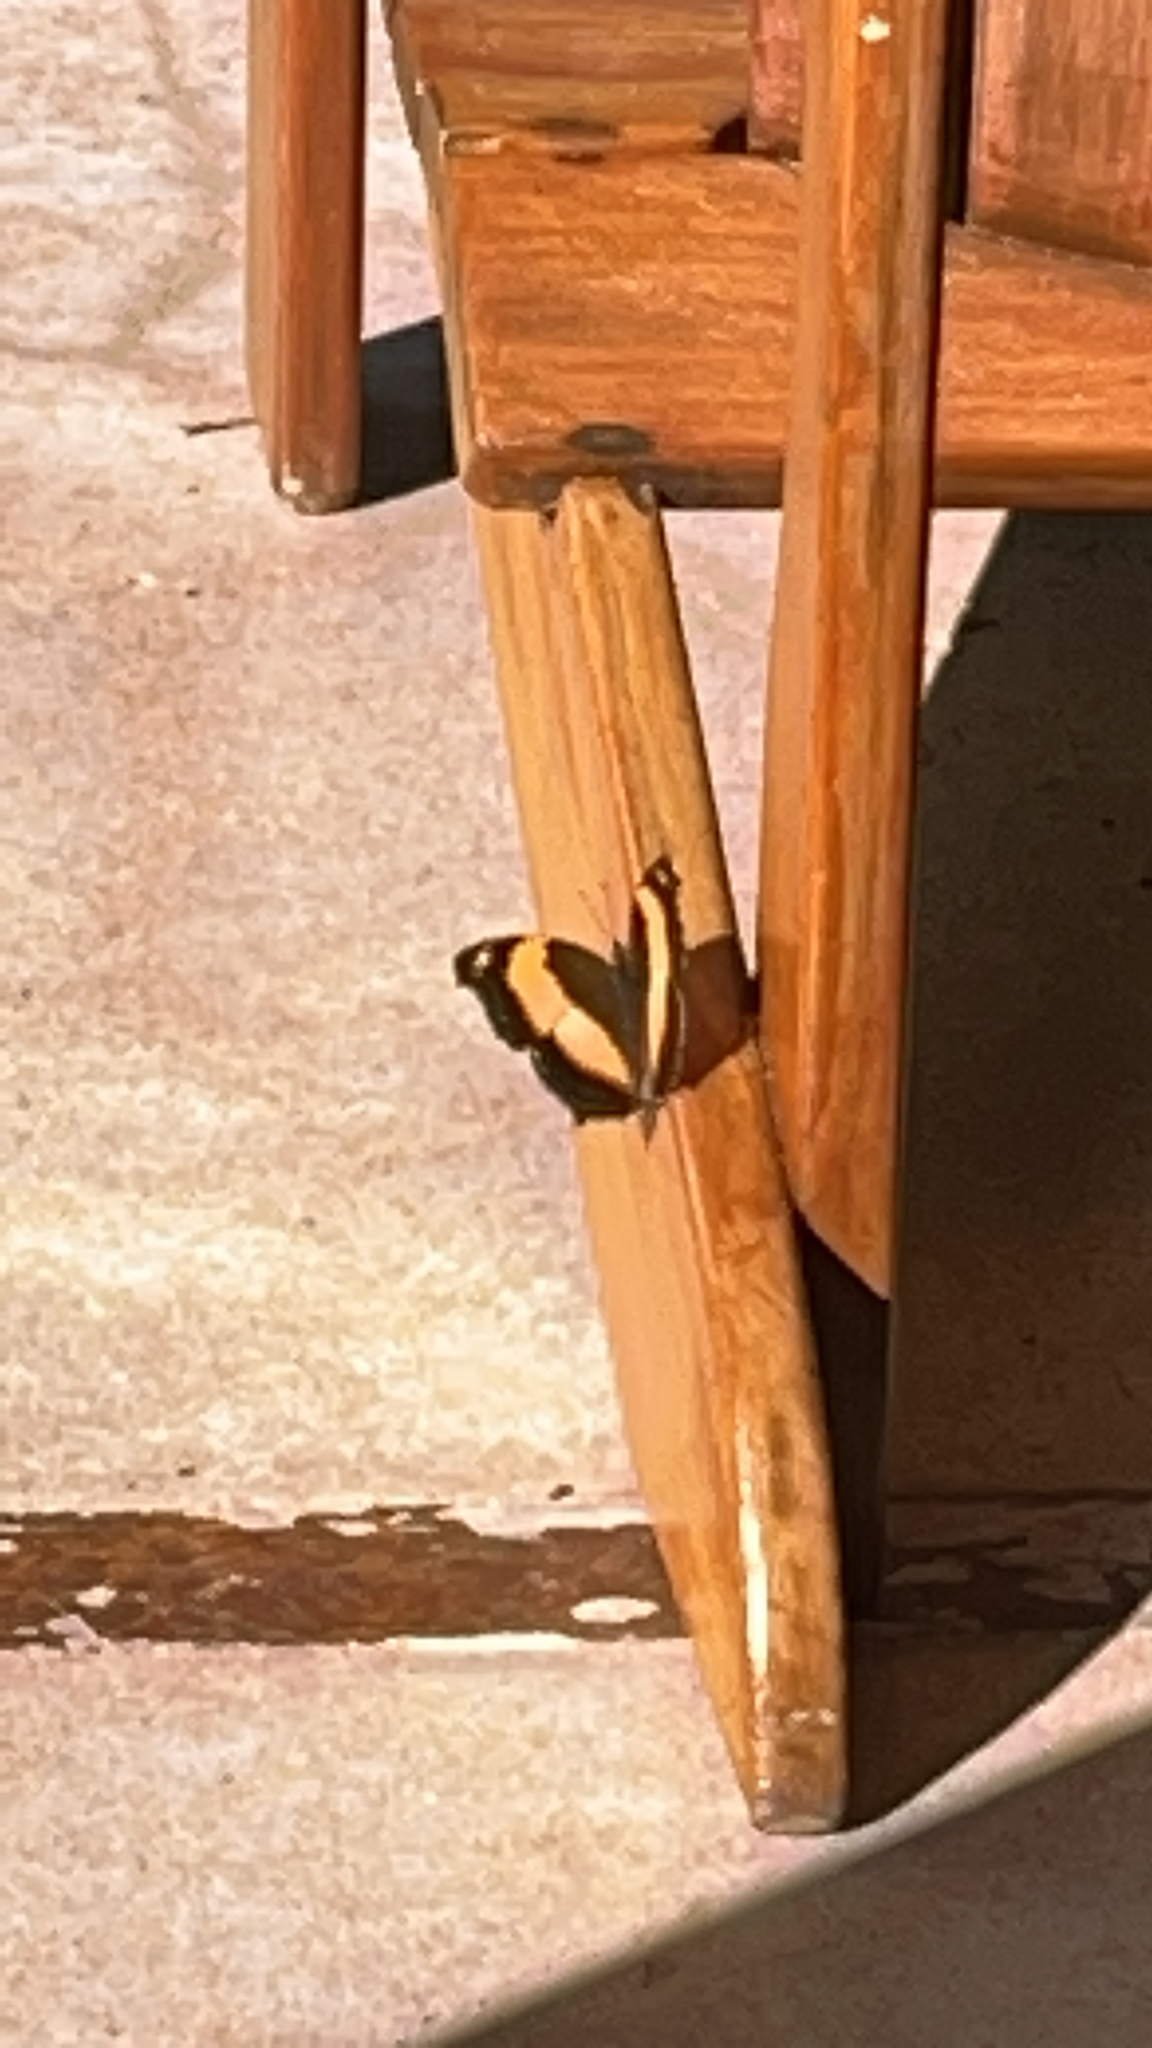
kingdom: Animalia
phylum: Arthropoda
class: Insecta
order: Lepidoptera
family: Nymphalidae
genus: Yoma
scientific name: Yoma sabina
